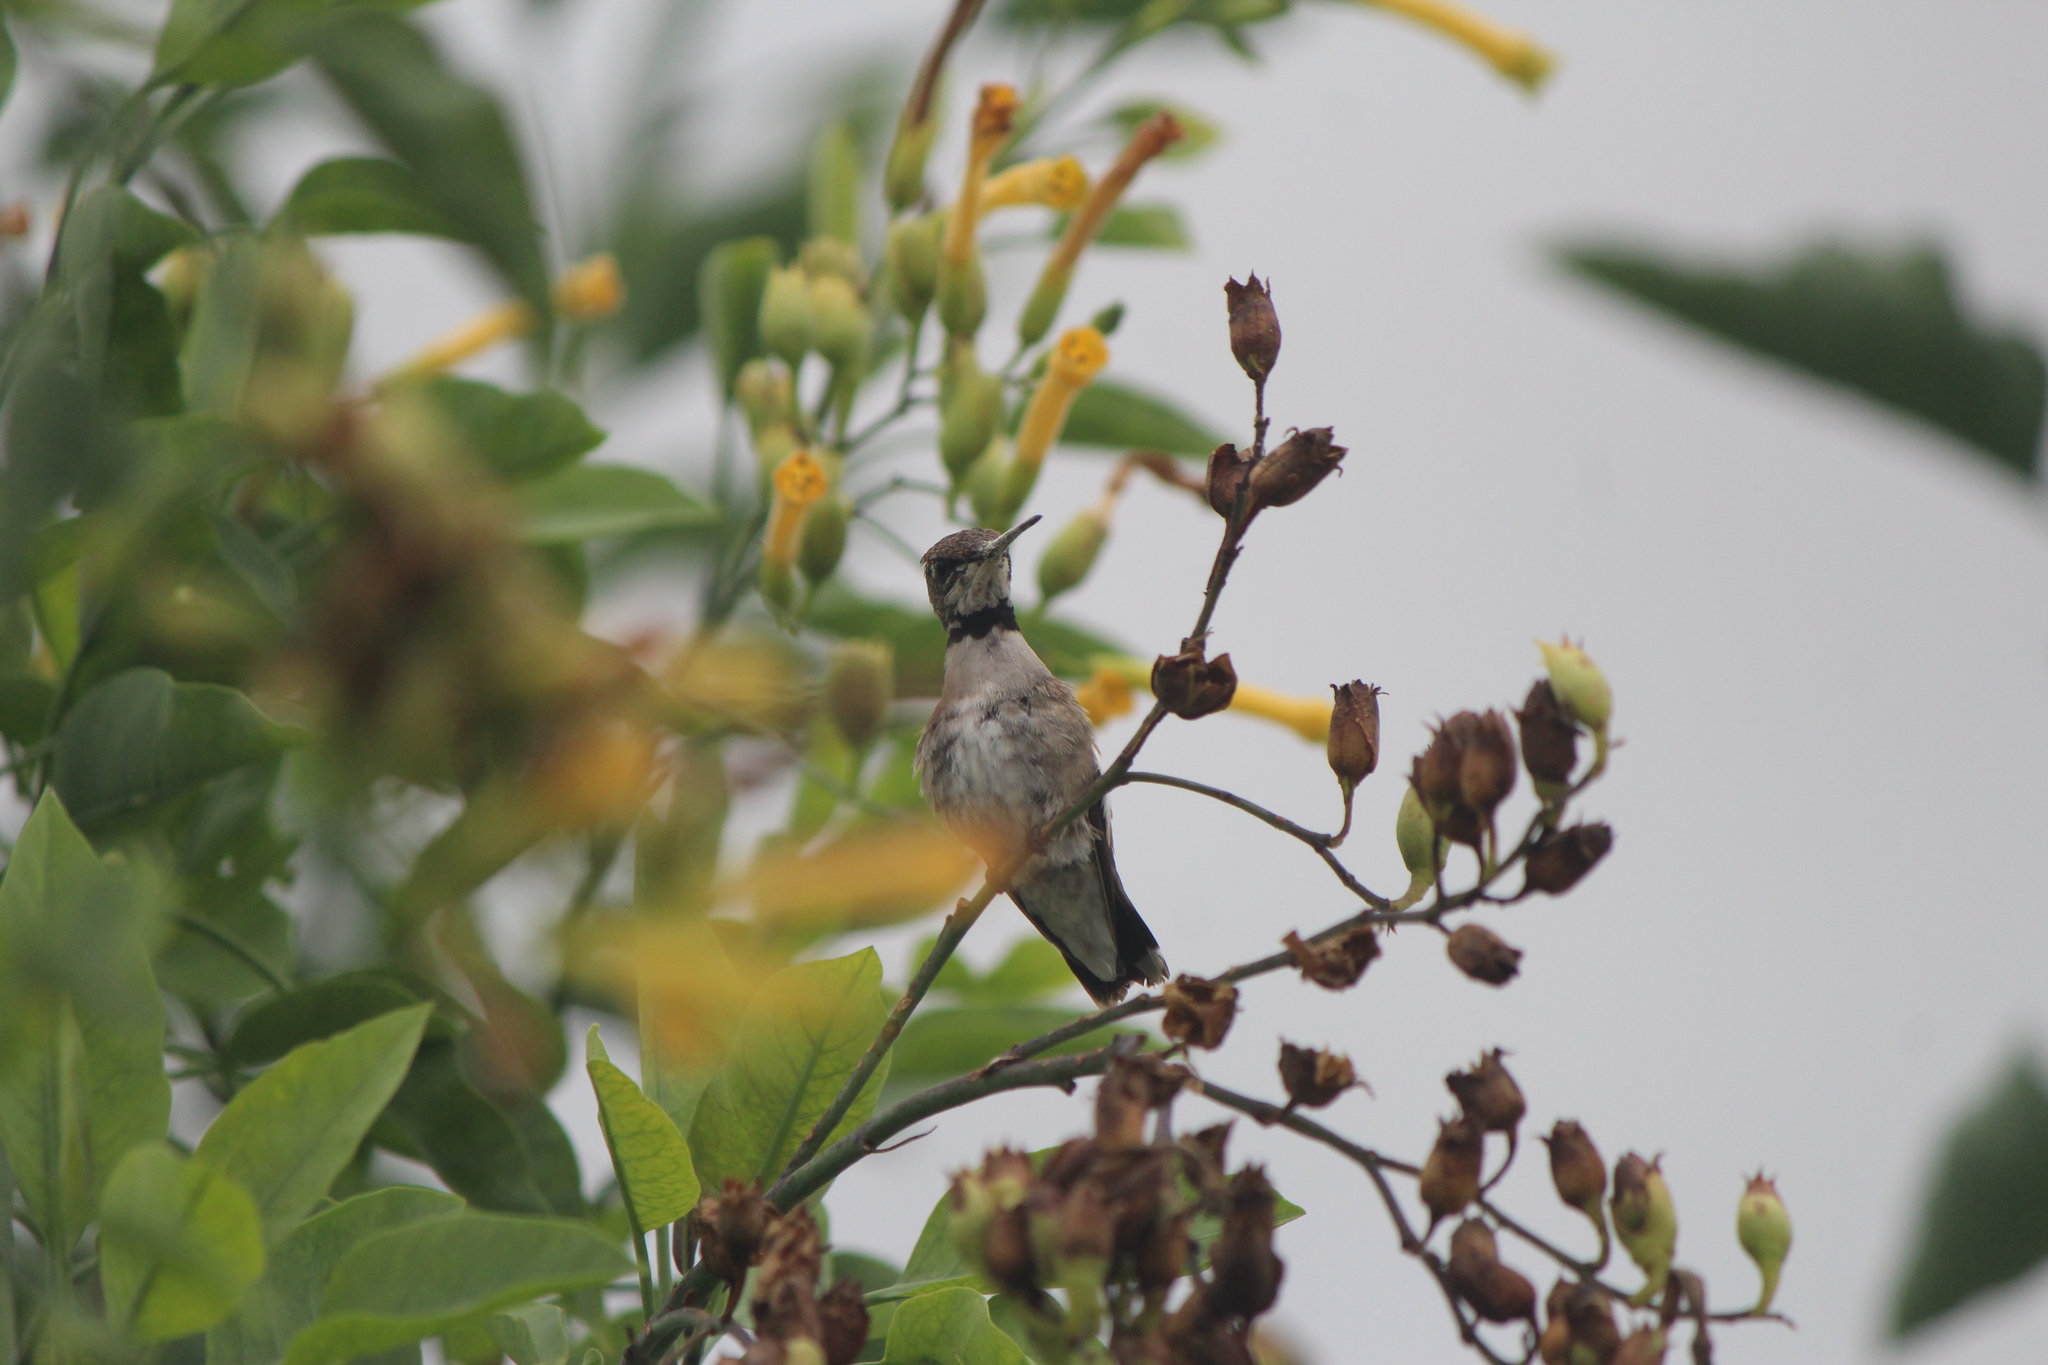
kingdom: Animalia
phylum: Chordata
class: Aves
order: Apodiformes
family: Trochilidae
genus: Archilochus
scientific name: Archilochus alexandri
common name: Black-chinned hummingbird
